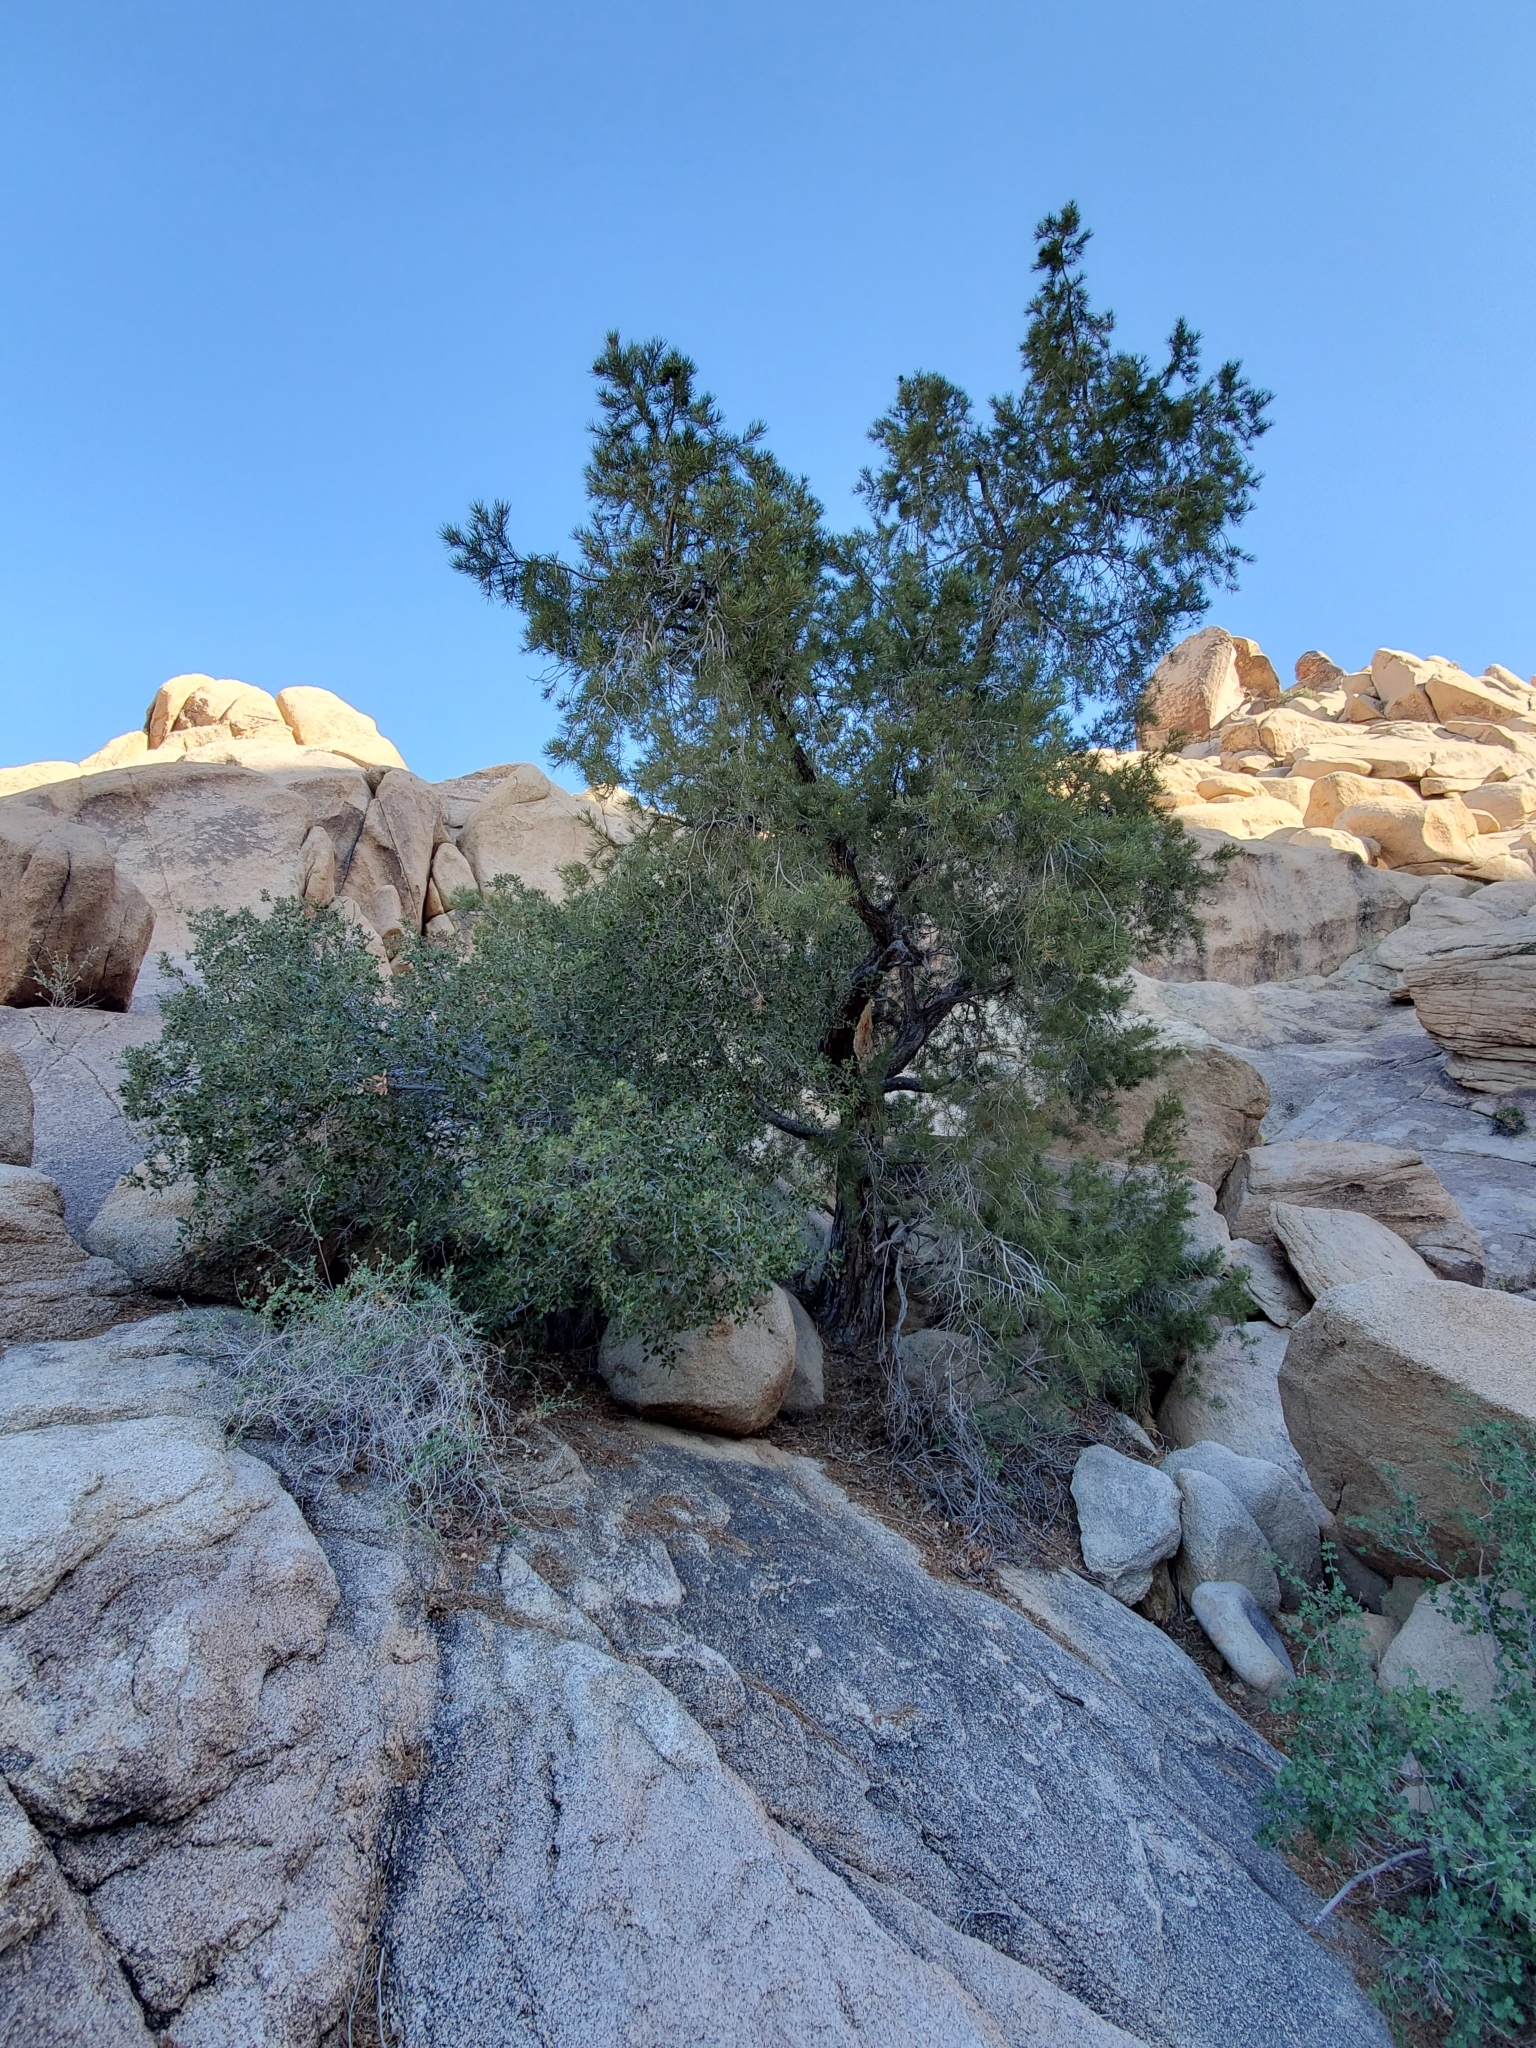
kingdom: Plantae
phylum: Tracheophyta
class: Pinopsida
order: Pinales
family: Pinaceae
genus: Pinus
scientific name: Pinus monophylla
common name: One-leaved nut pine
